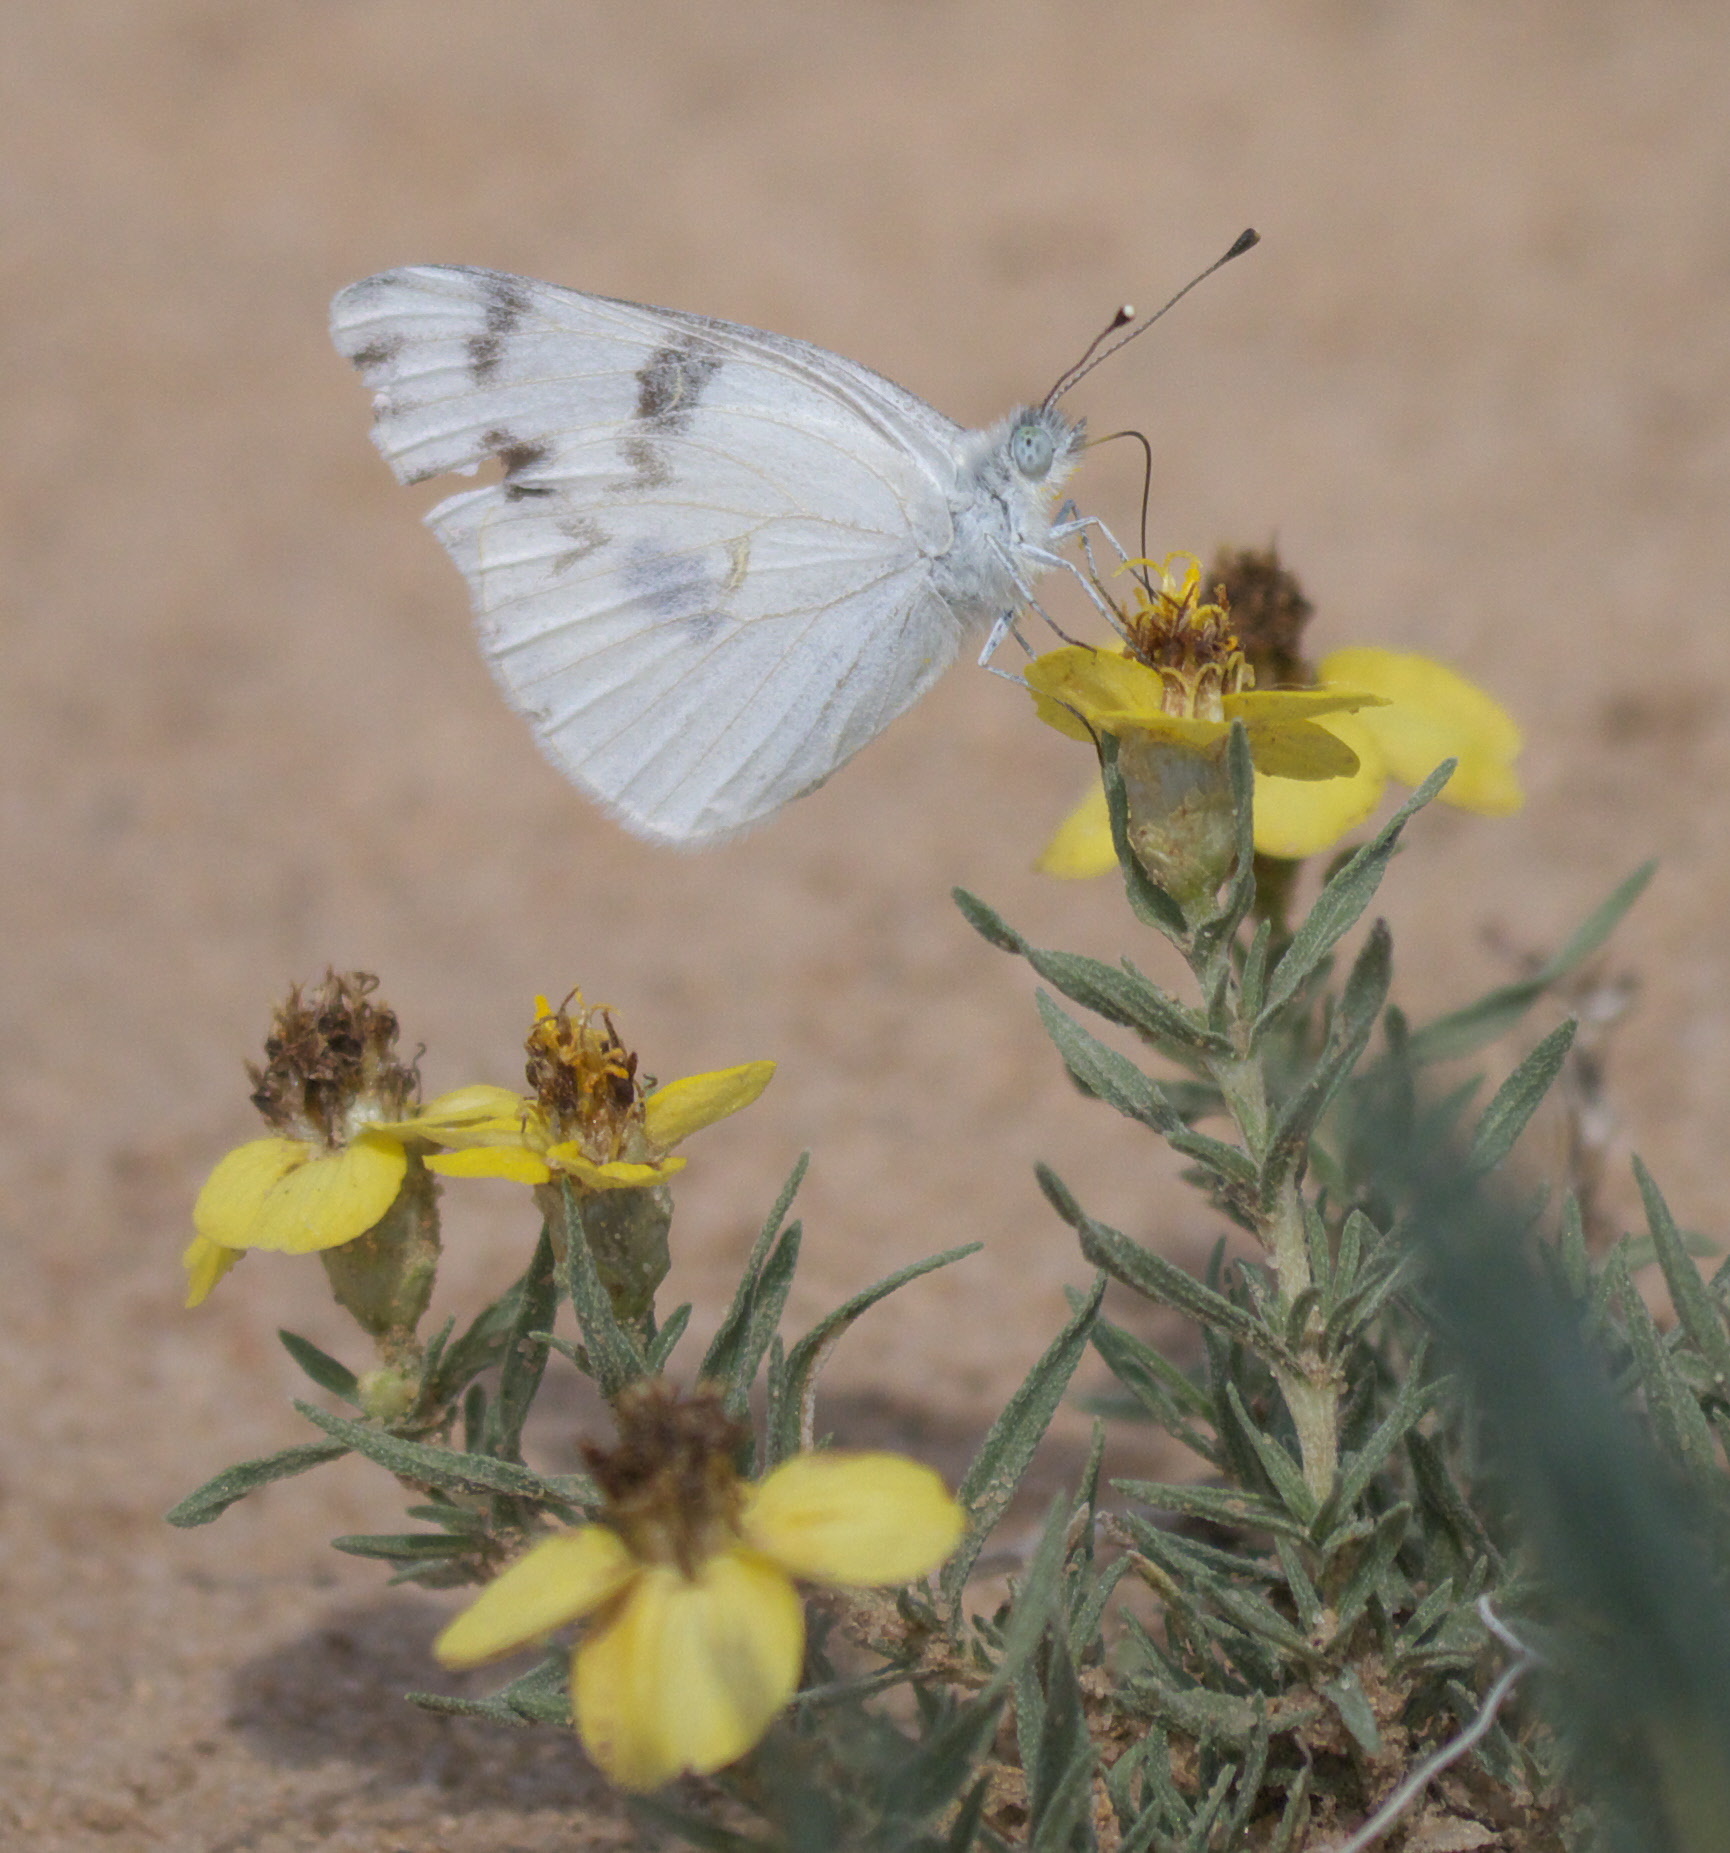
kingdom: Animalia
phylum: Arthropoda
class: Insecta
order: Lepidoptera
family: Pieridae
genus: Pontia
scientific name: Pontia protodice
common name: Checkered white
